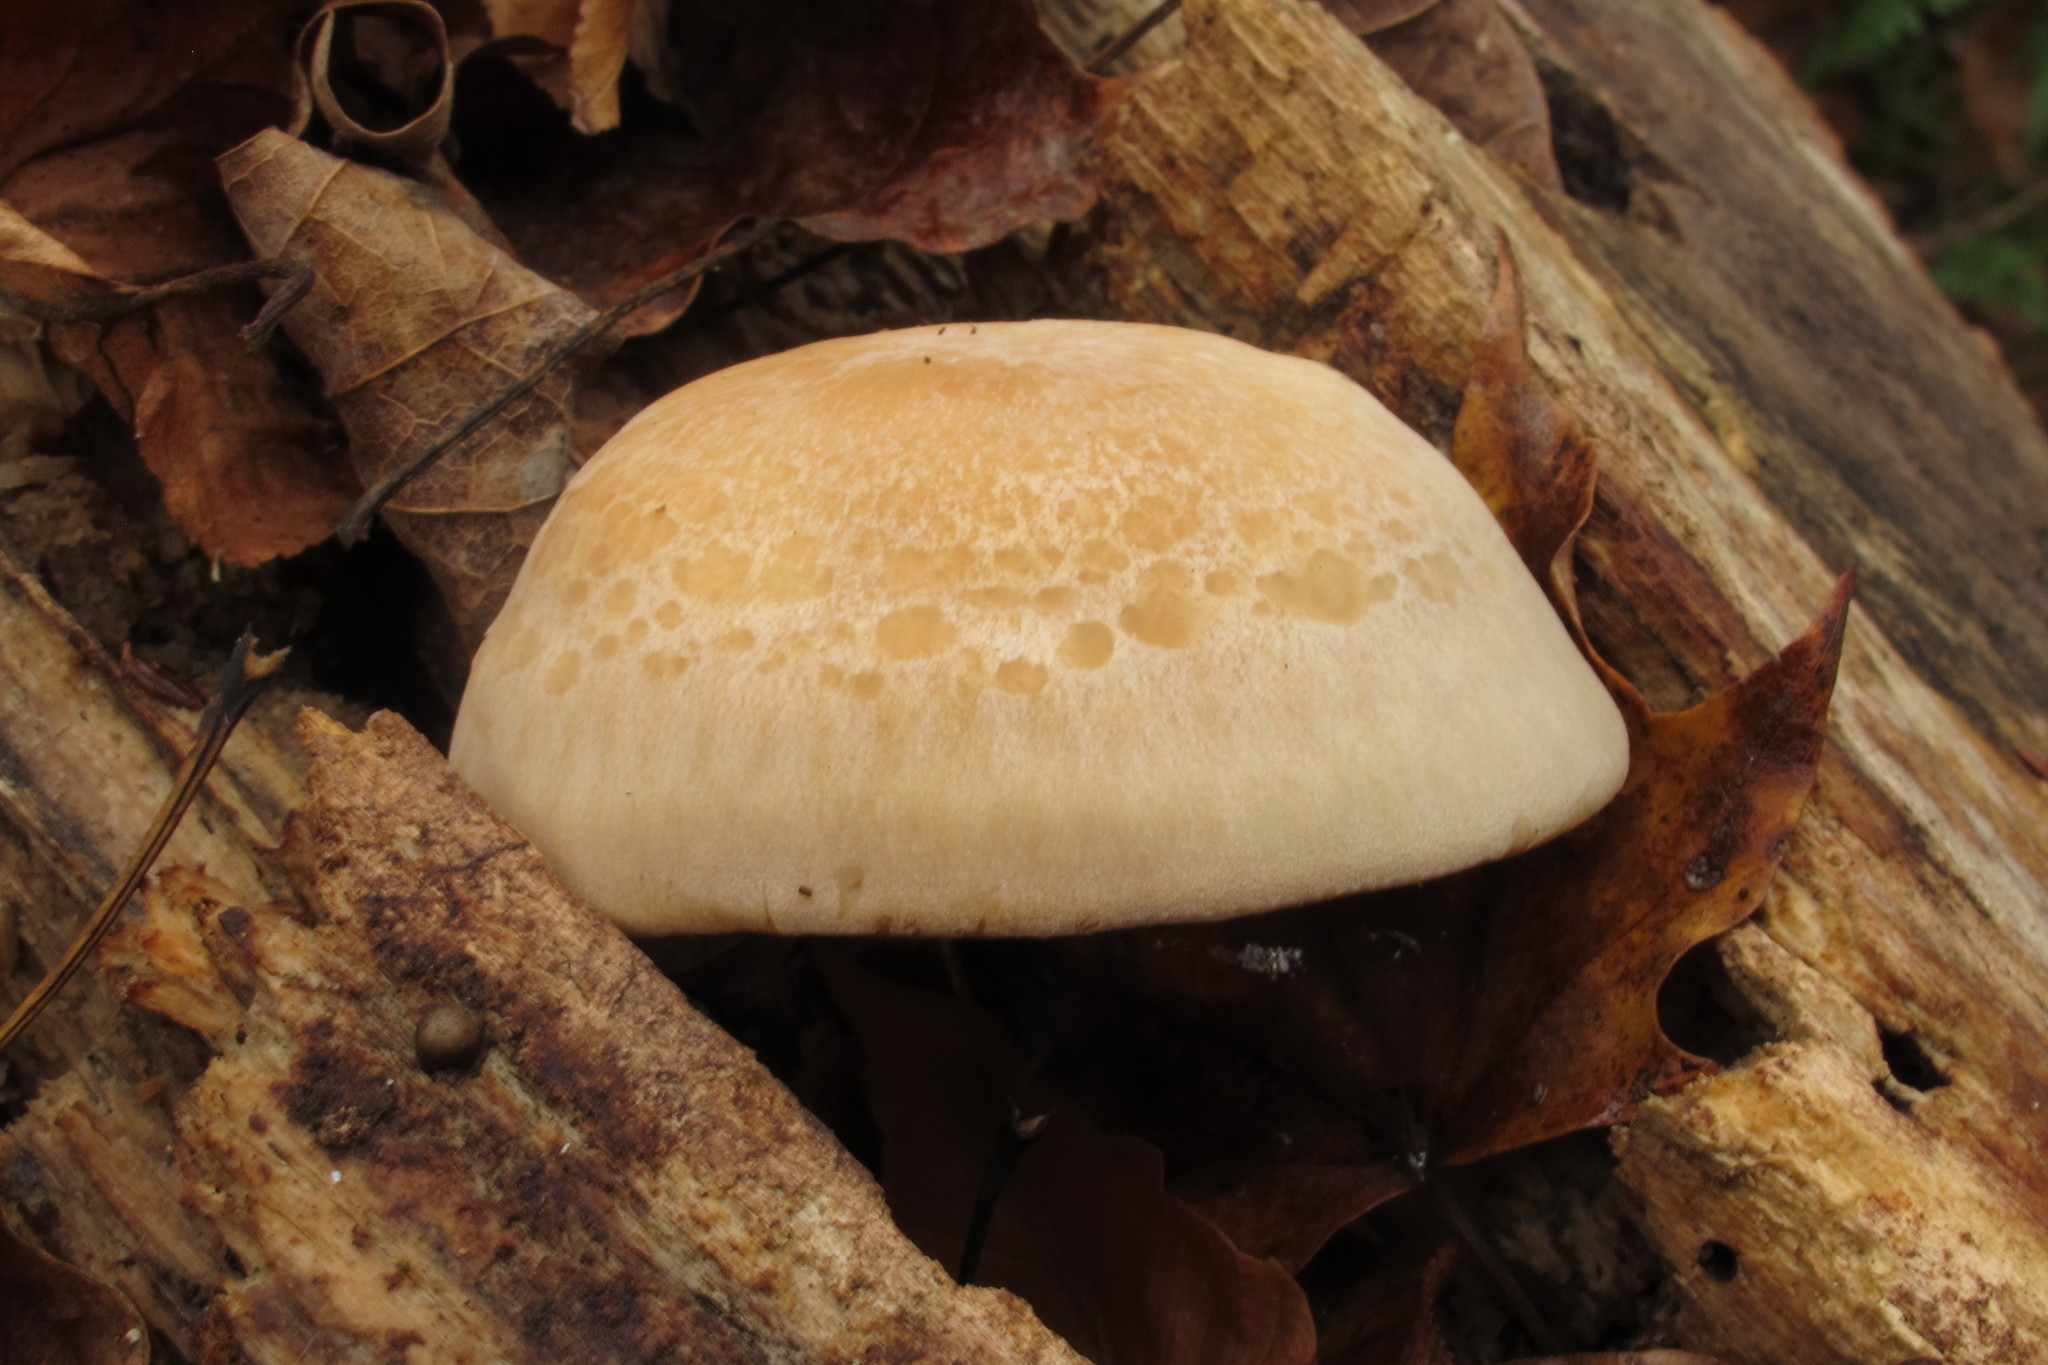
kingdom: Fungi
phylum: Basidiomycota
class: Agaricomycetes
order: Agaricales
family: Lyophyllaceae
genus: Hypsizygus
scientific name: Hypsizygus marmoreus
